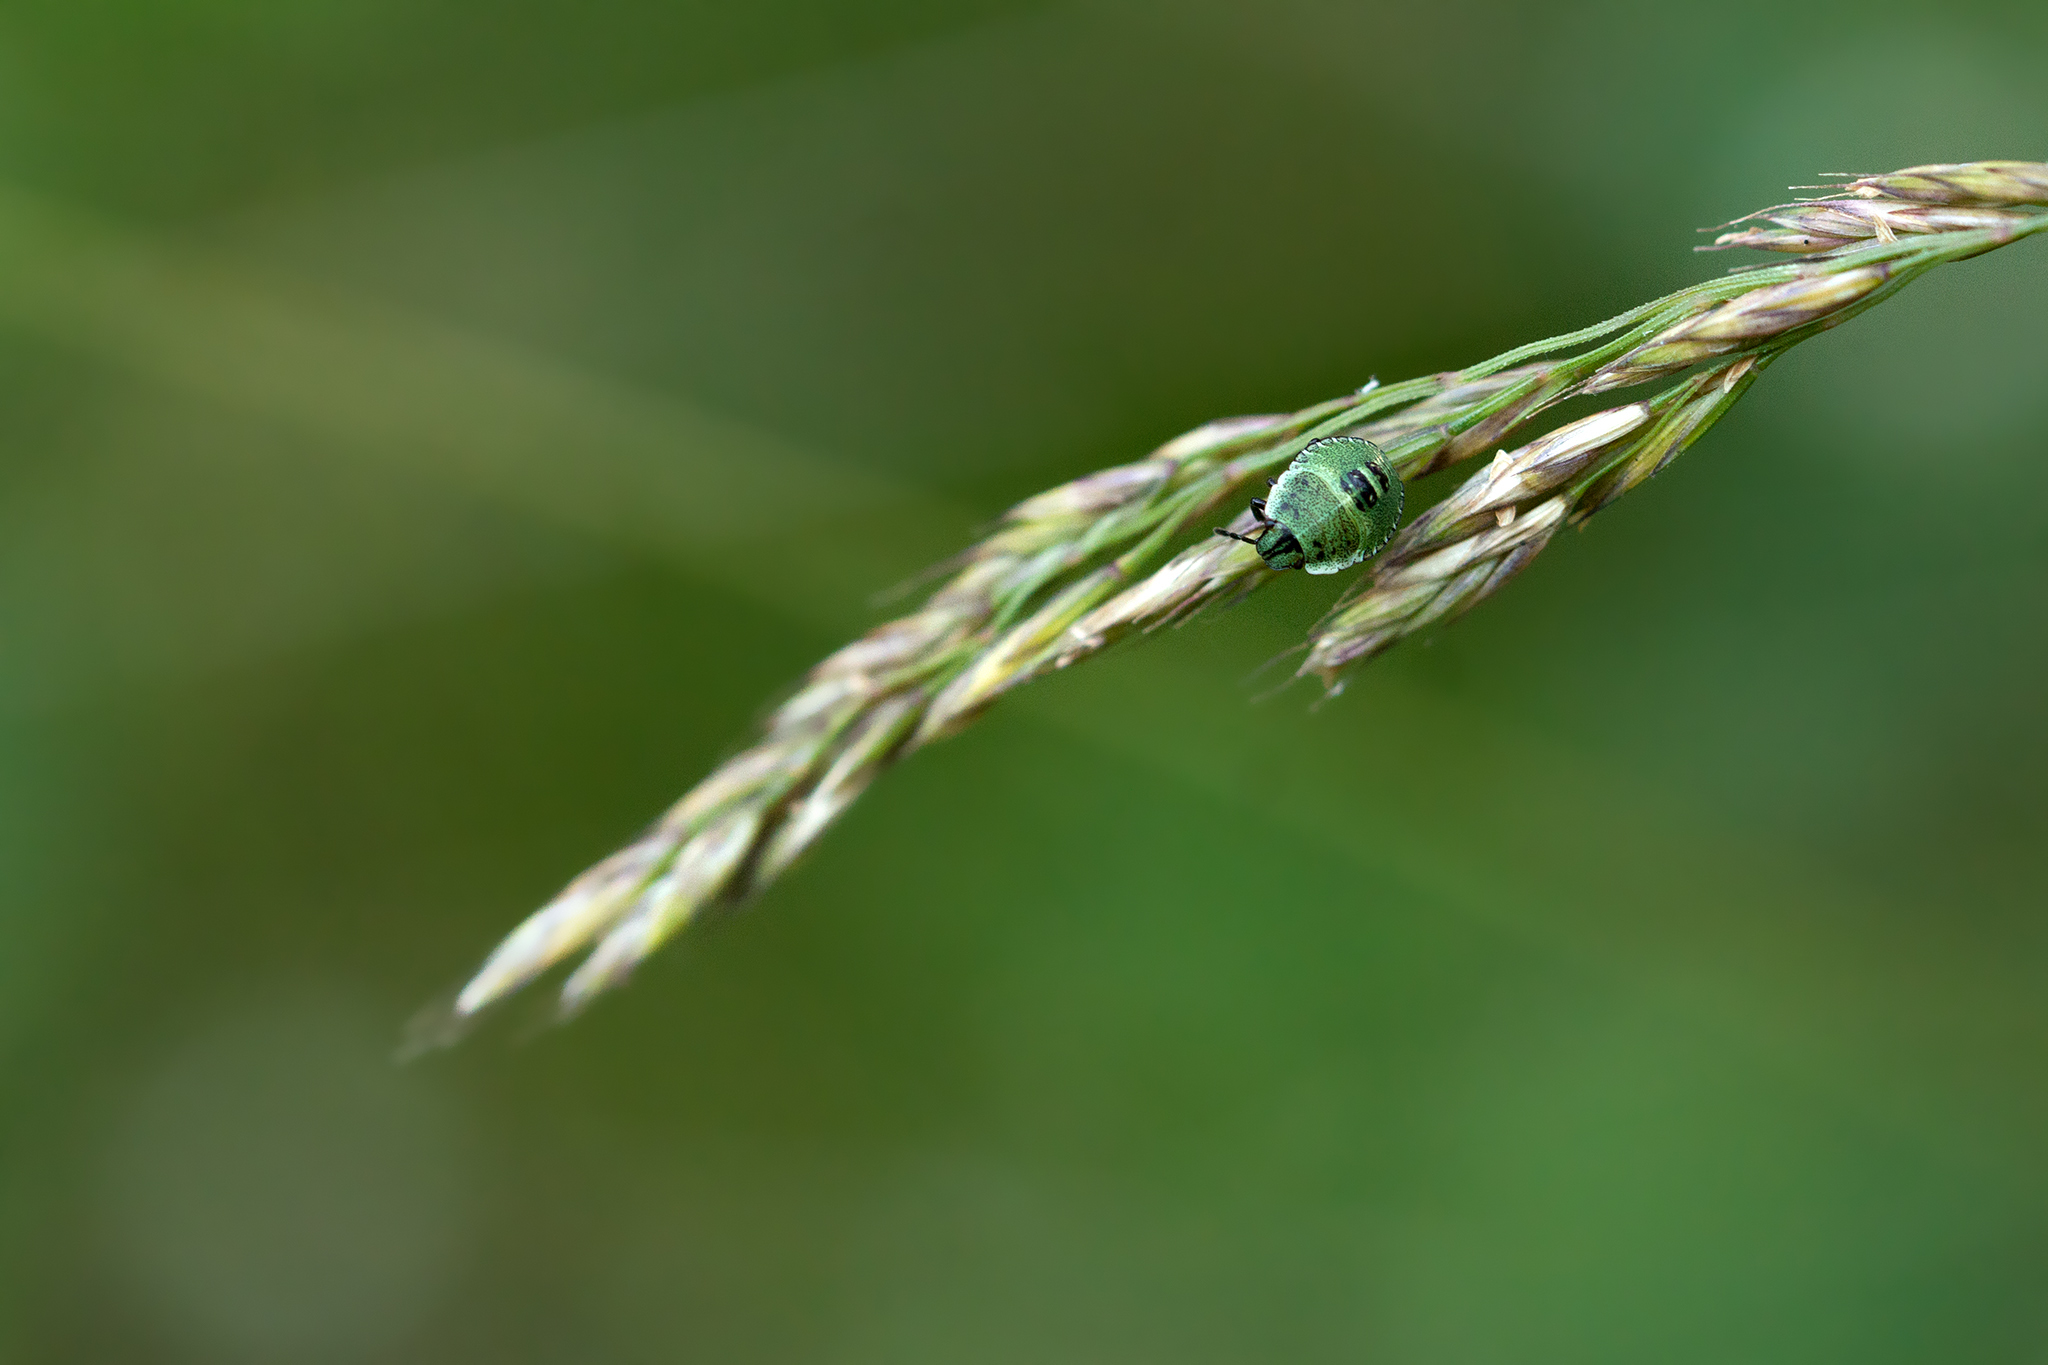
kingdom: Animalia
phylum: Arthropoda
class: Insecta
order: Hemiptera
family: Pentatomidae
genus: Palomena
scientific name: Palomena prasina
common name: Green shieldbug
